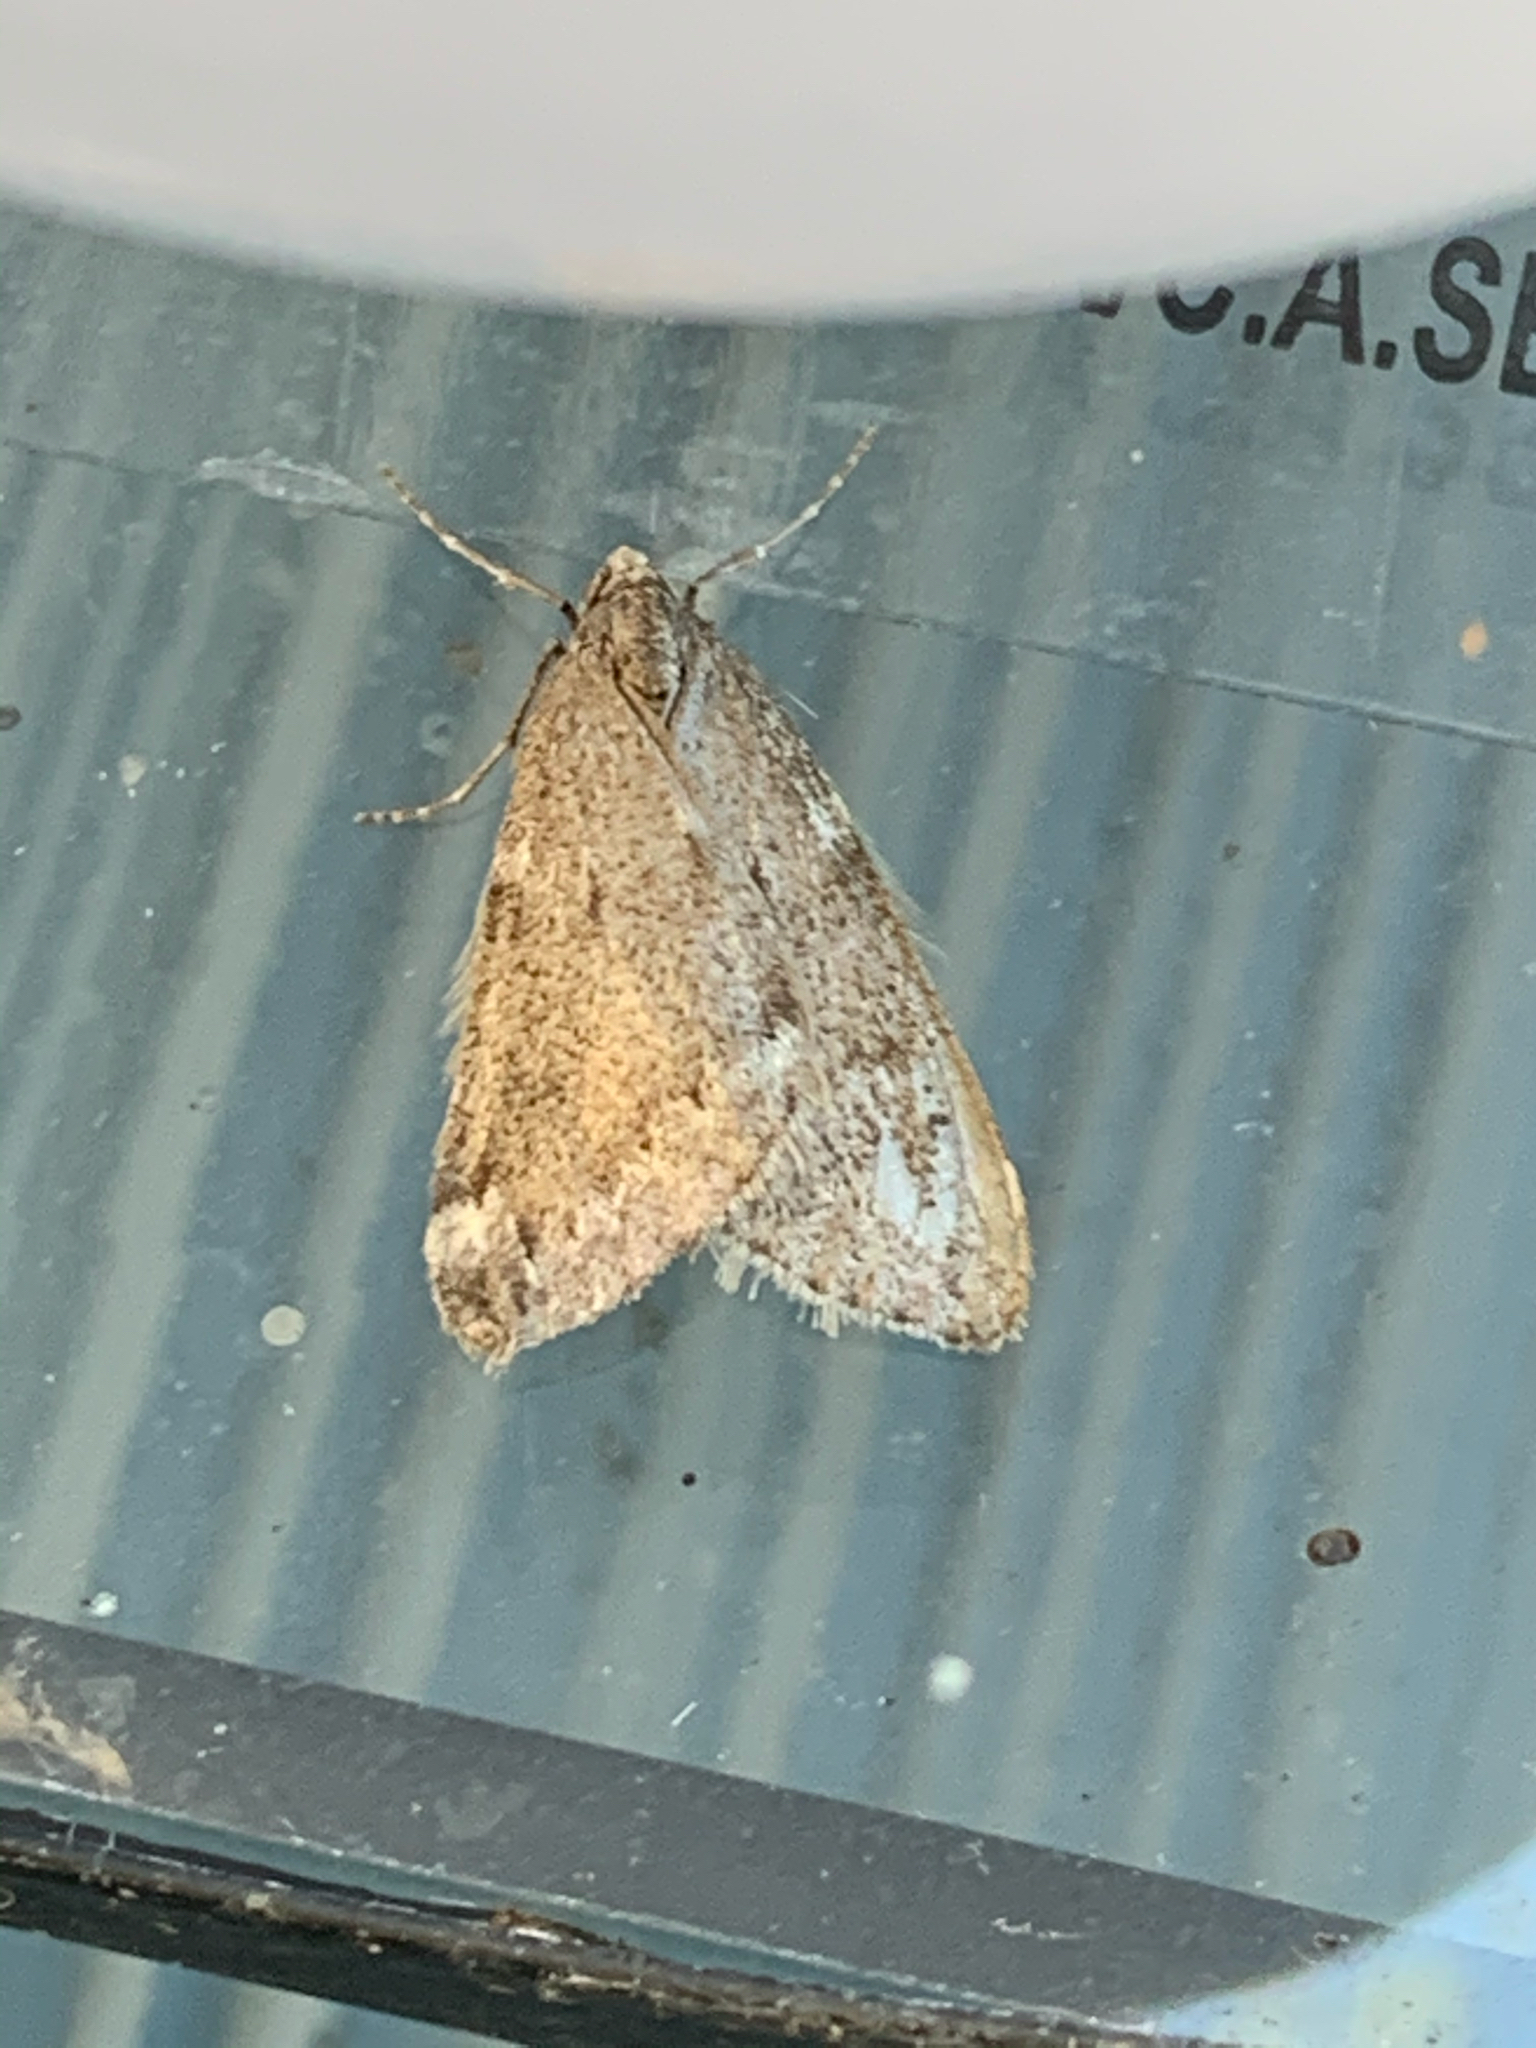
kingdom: Animalia
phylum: Arthropoda
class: Insecta
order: Lepidoptera
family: Geometridae
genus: Alsophila
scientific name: Alsophila pometaria
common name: Fall cankerworm
